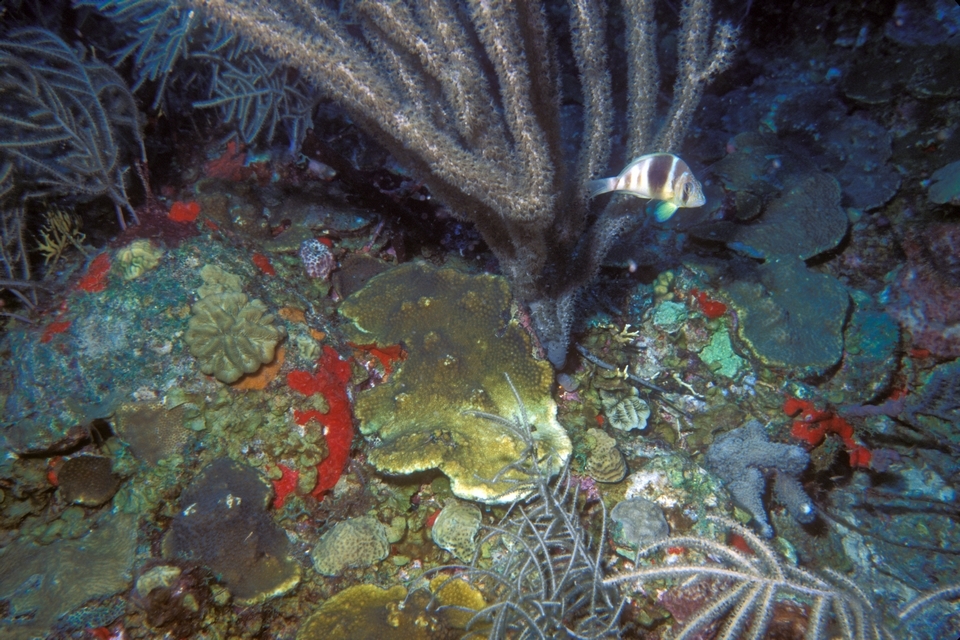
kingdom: Animalia
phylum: Chordata
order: Perciformes
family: Serranidae
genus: Hypoplectrus
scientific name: Hypoplectrus puella
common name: Barred hamlet
